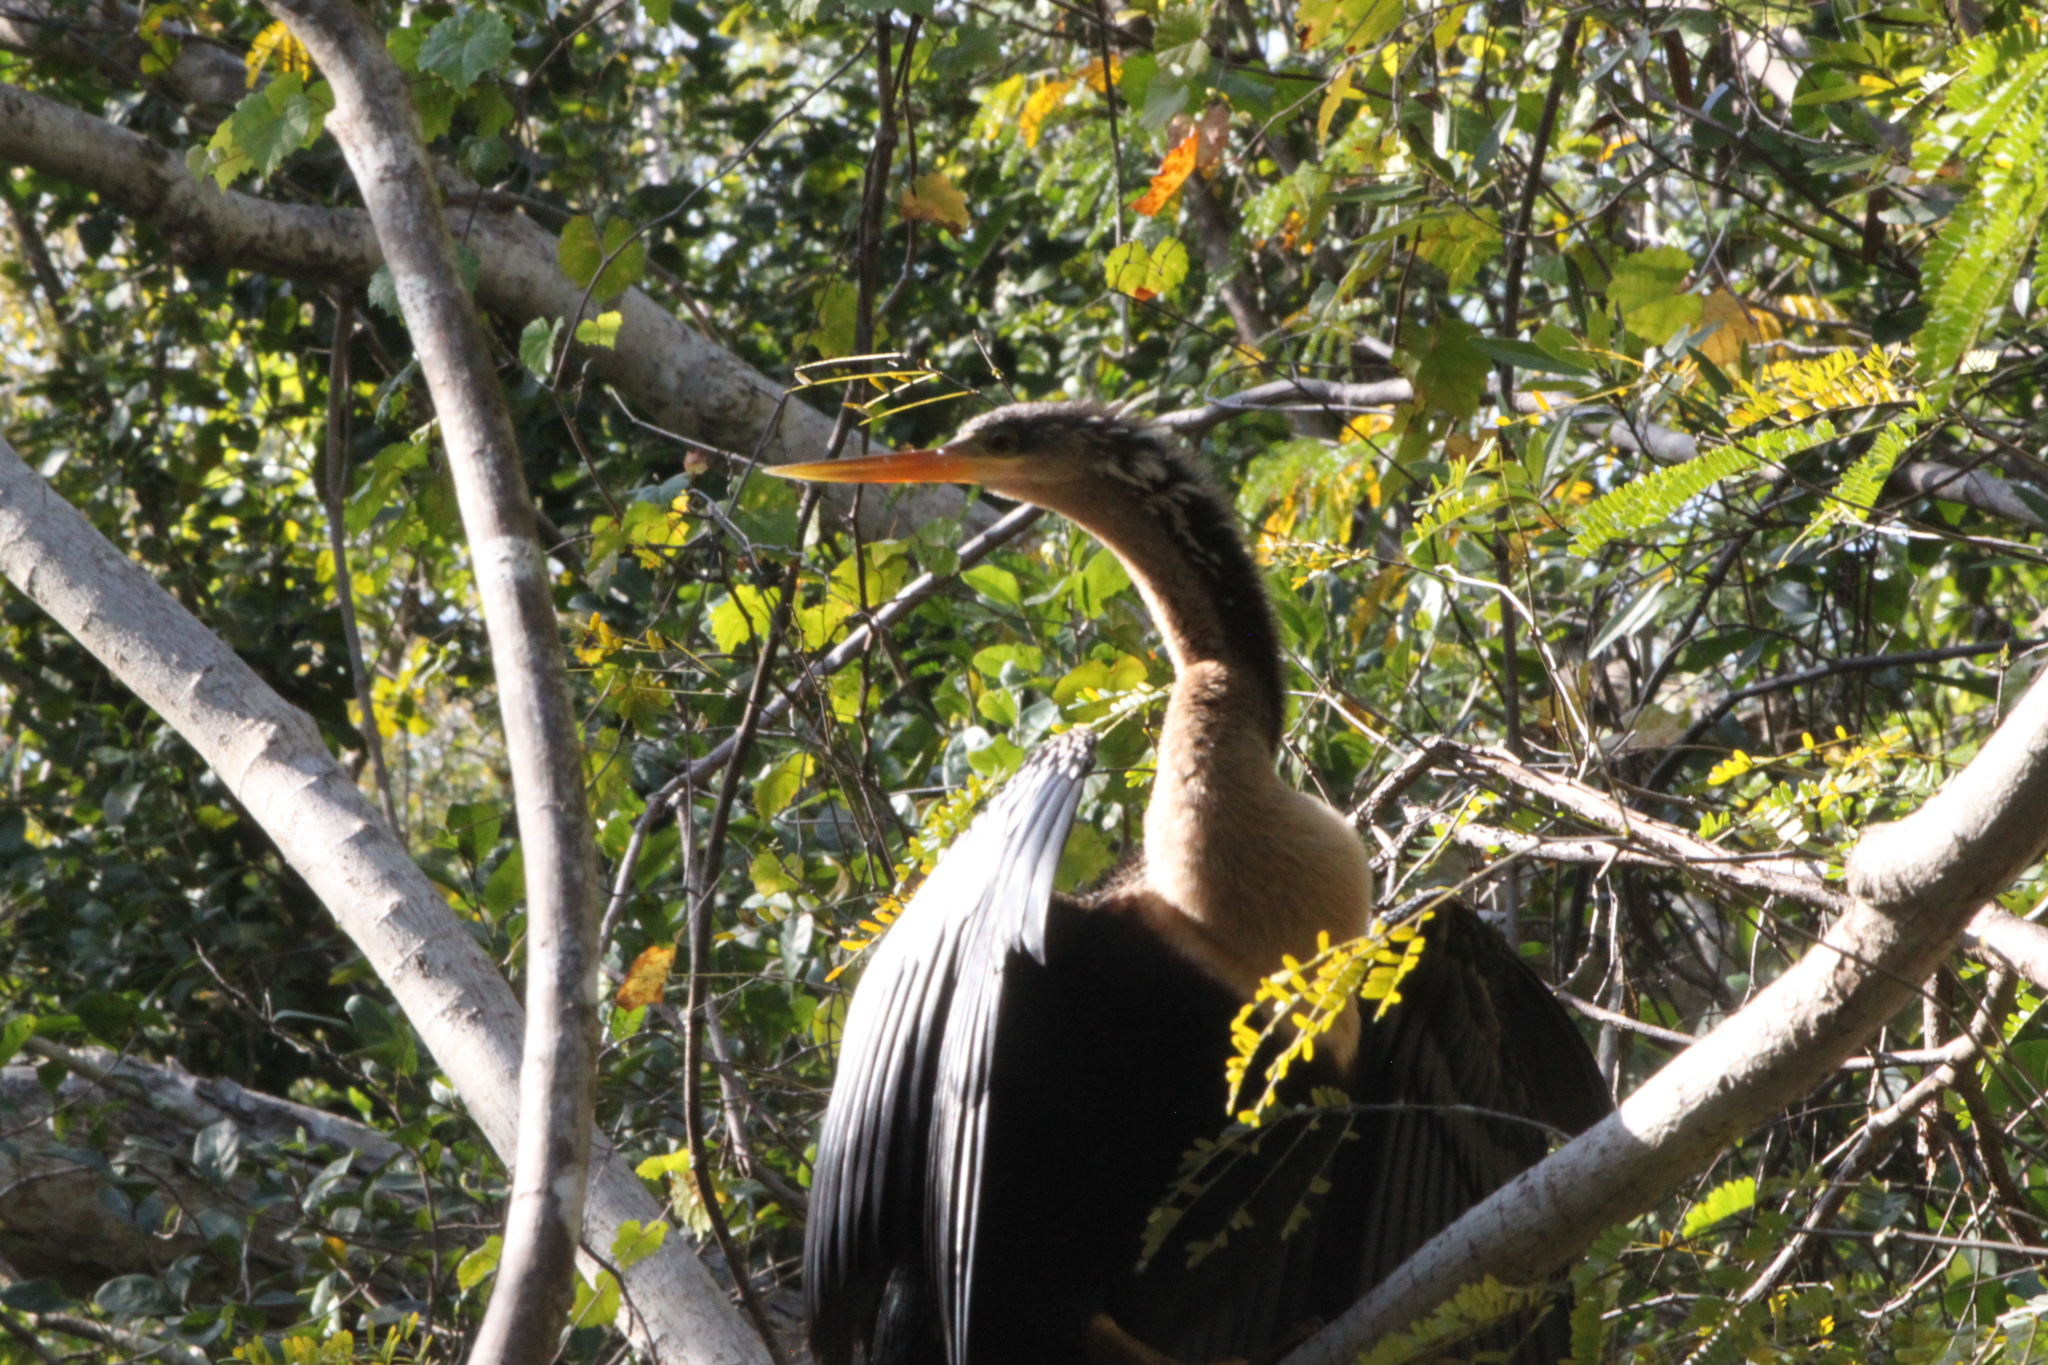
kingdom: Animalia
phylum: Chordata
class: Aves
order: Suliformes
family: Anhingidae
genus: Anhinga
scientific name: Anhinga anhinga
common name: Anhinga
